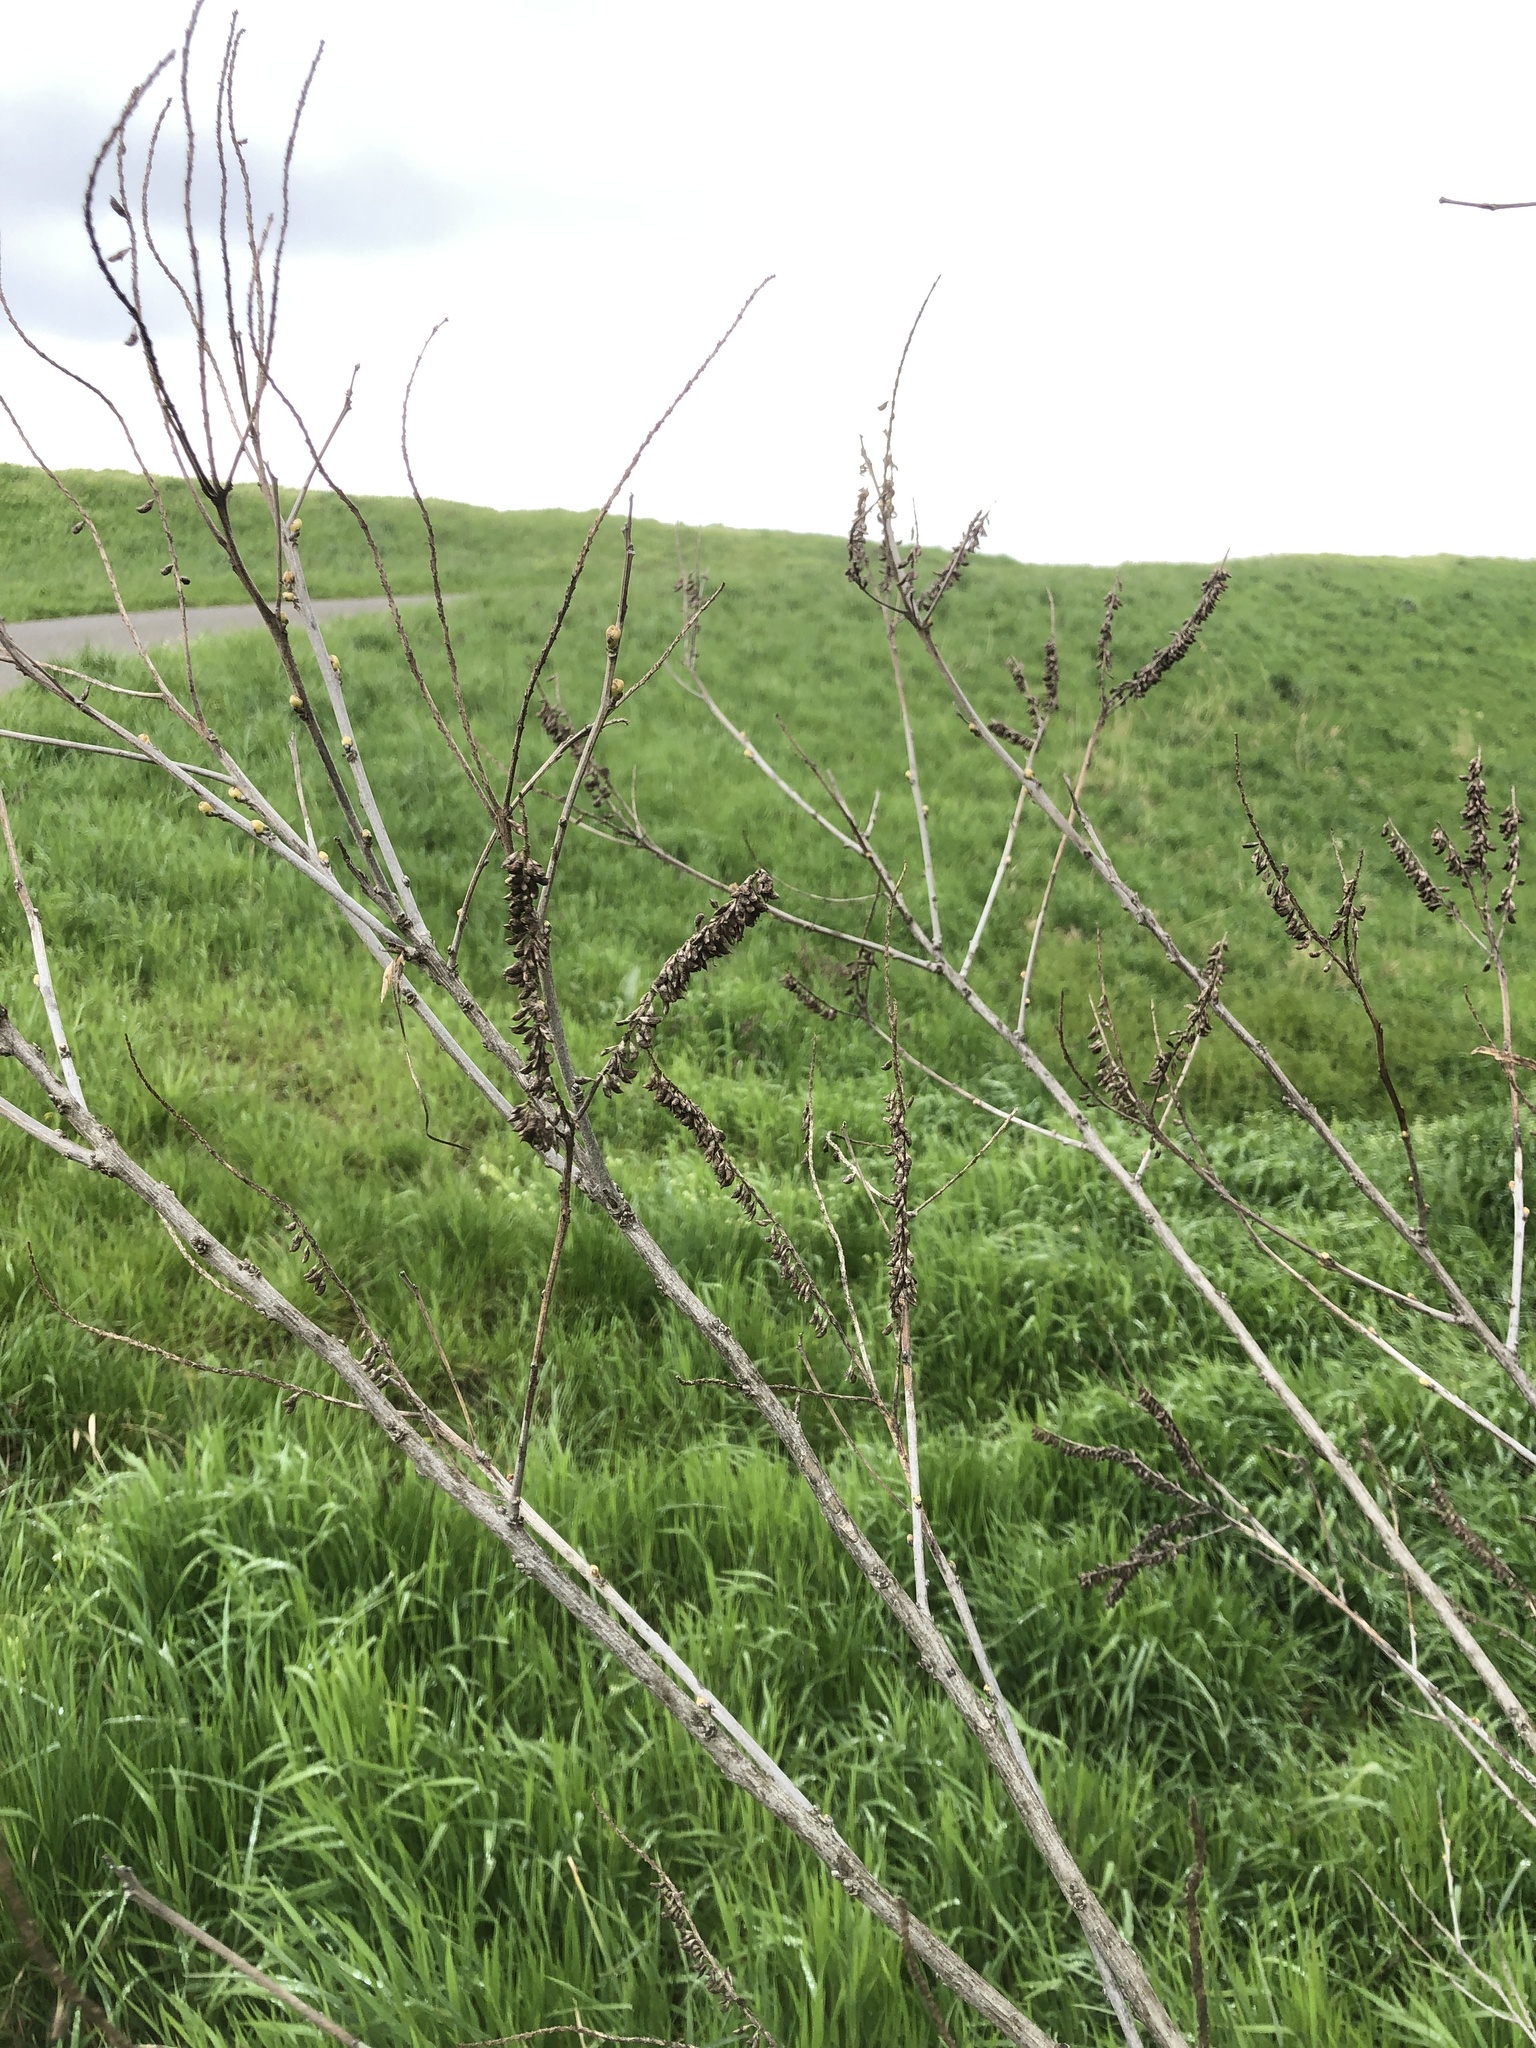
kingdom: Plantae
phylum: Tracheophyta
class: Magnoliopsida
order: Fabales
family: Fabaceae
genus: Amorpha
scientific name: Amorpha fruticosa
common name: False indigo
